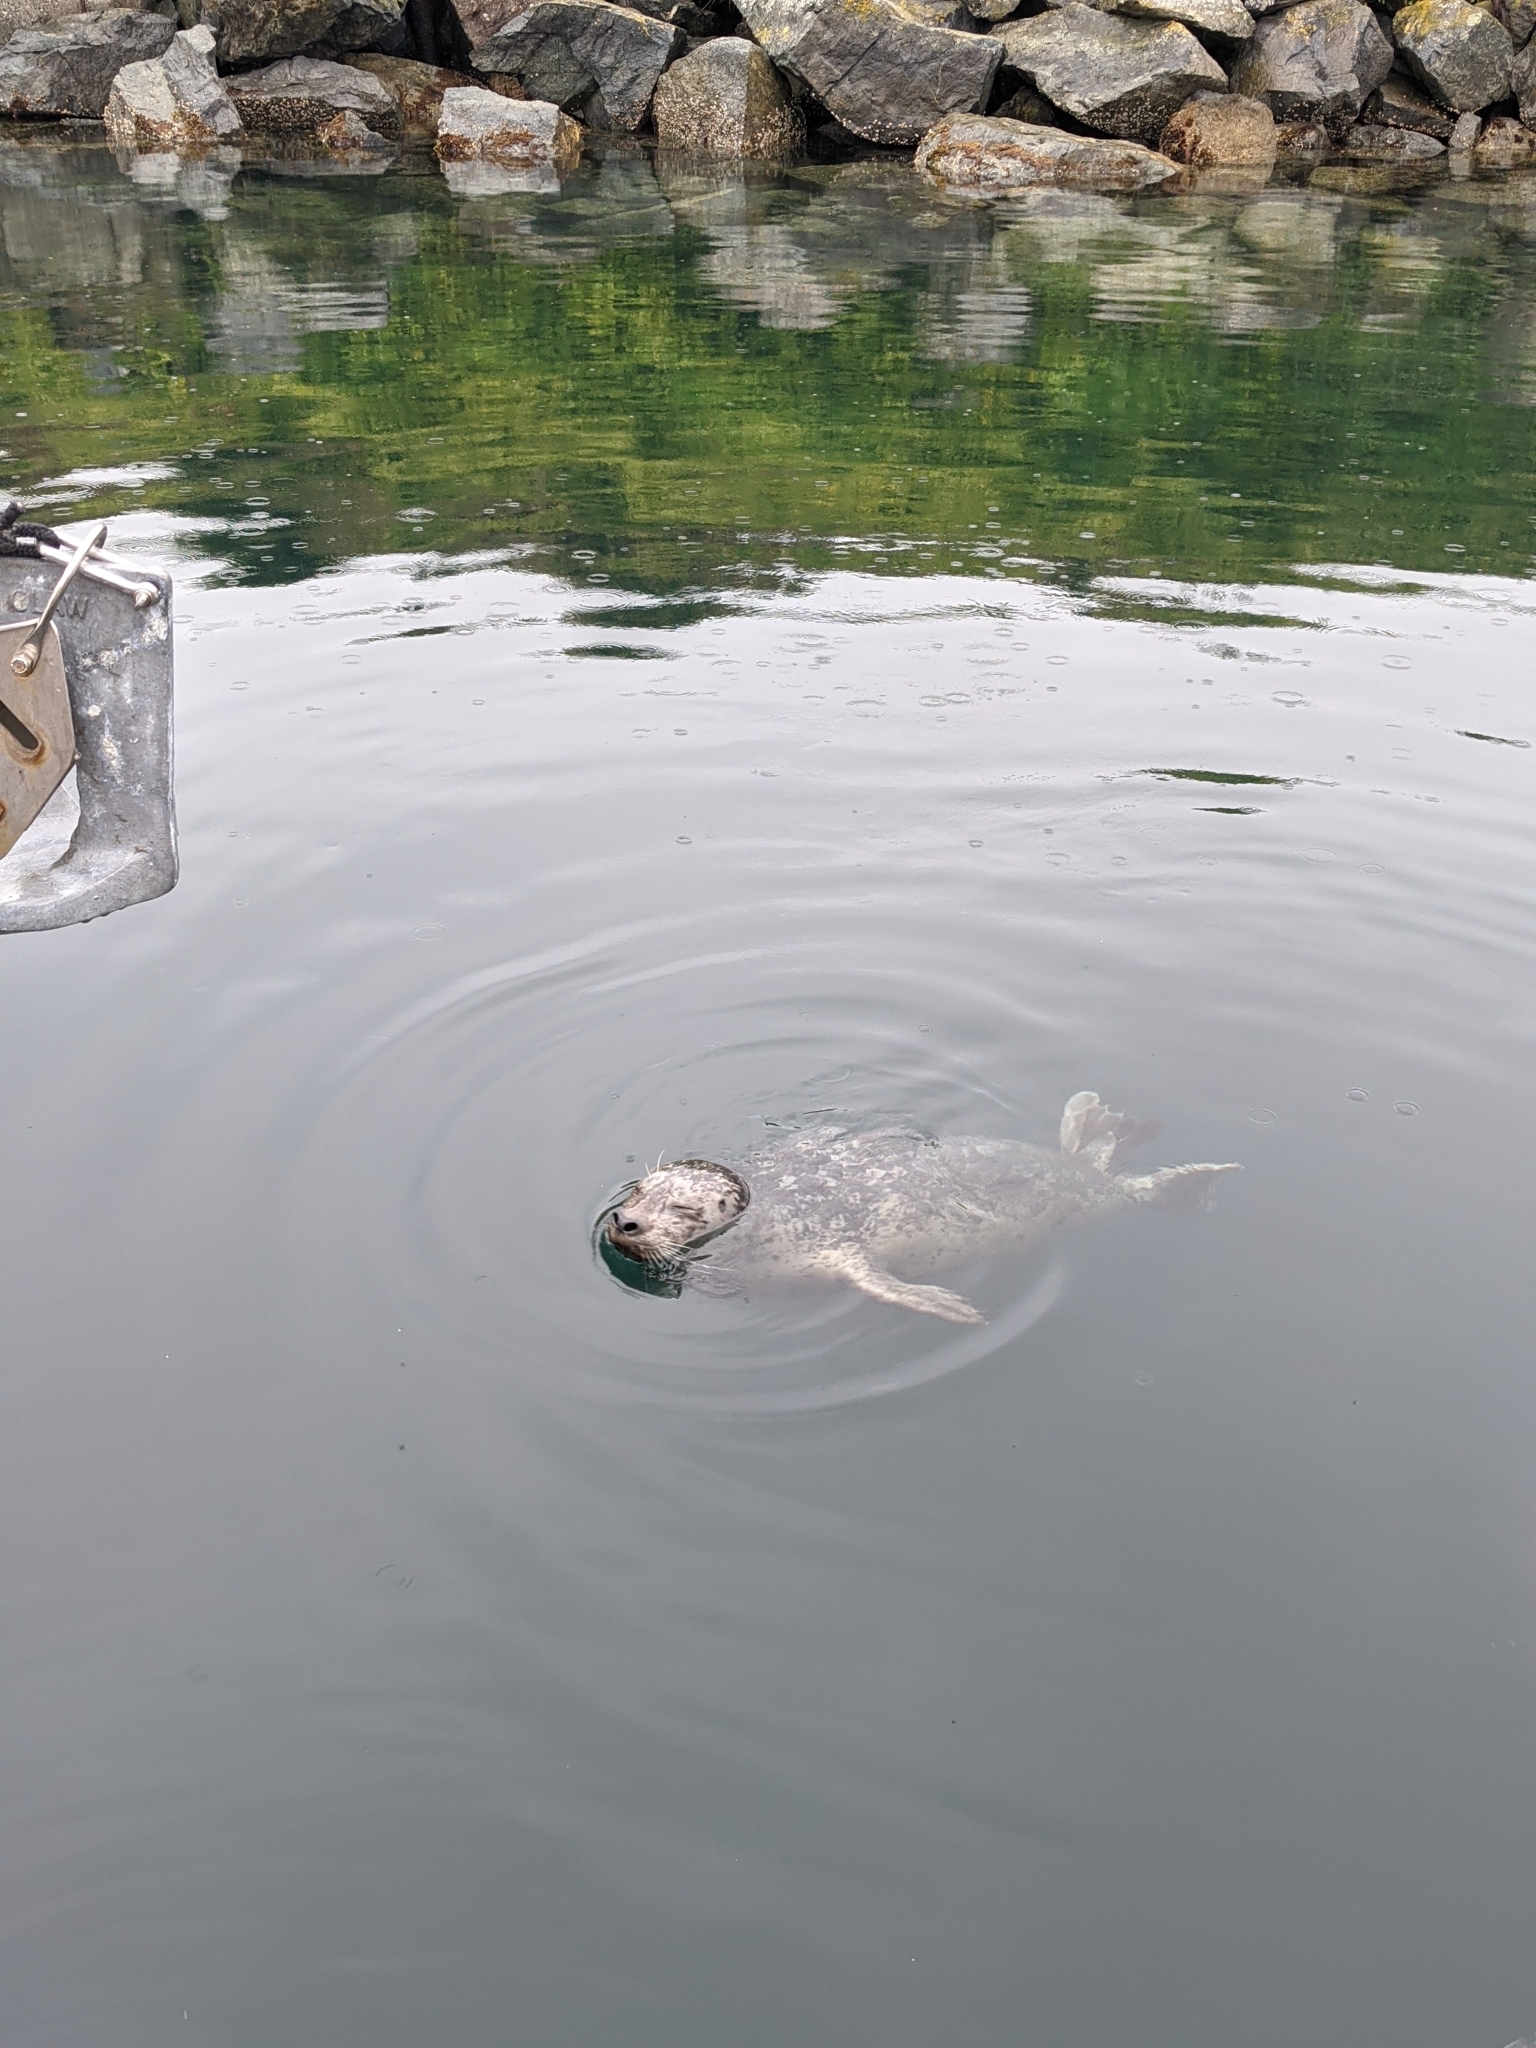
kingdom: Animalia
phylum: Chordata
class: Mammalia
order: Carnivora
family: Phocidae
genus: Phoca
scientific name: Phoca vitulina
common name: Harbor seal
